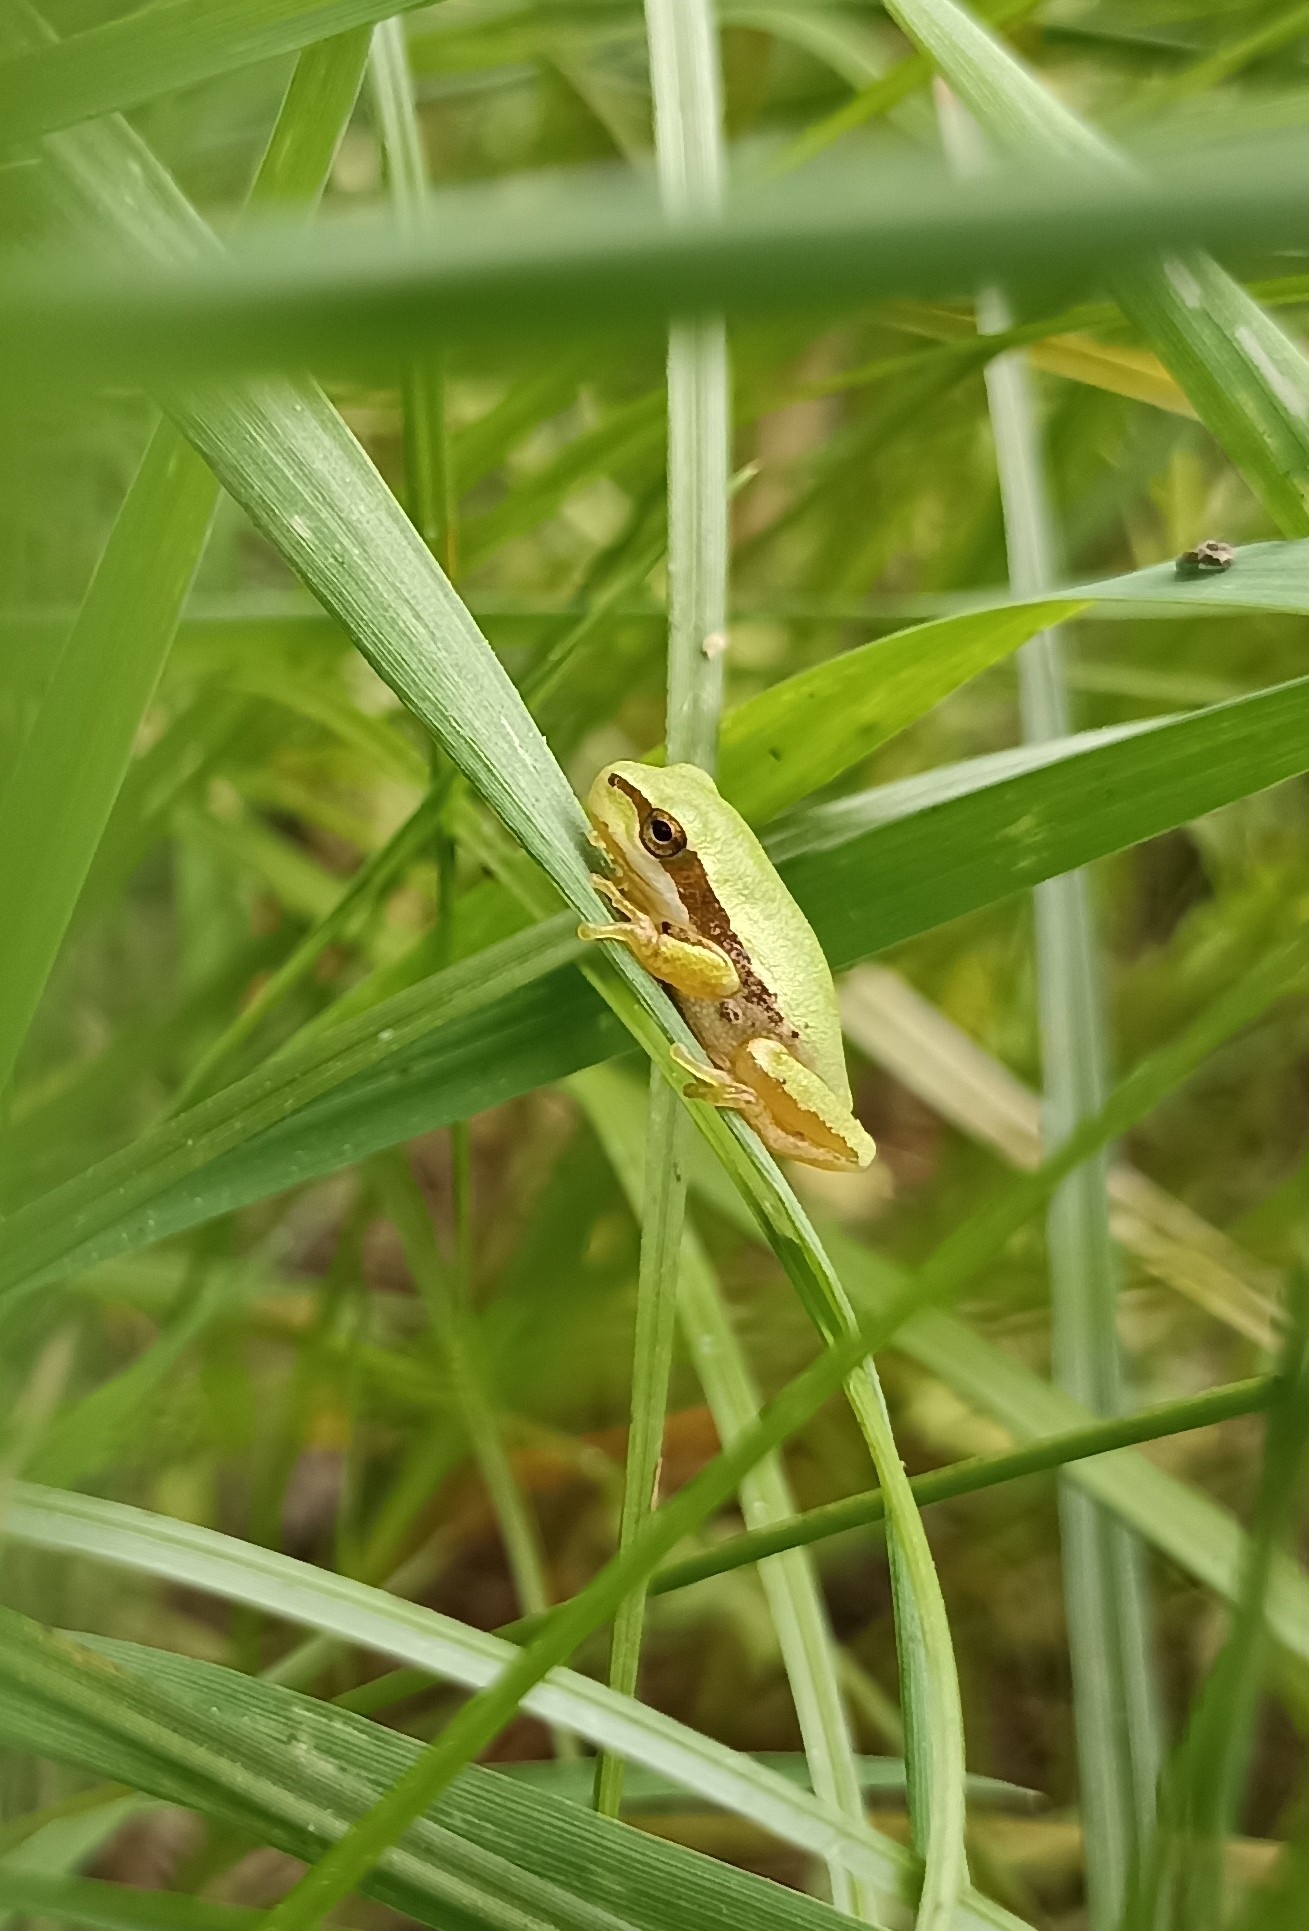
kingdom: Animalia
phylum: Chordata
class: Amphibia
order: Anura
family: Hylidae
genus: Hyla
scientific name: Hyla meridionalis
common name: Stripeless tree frog
